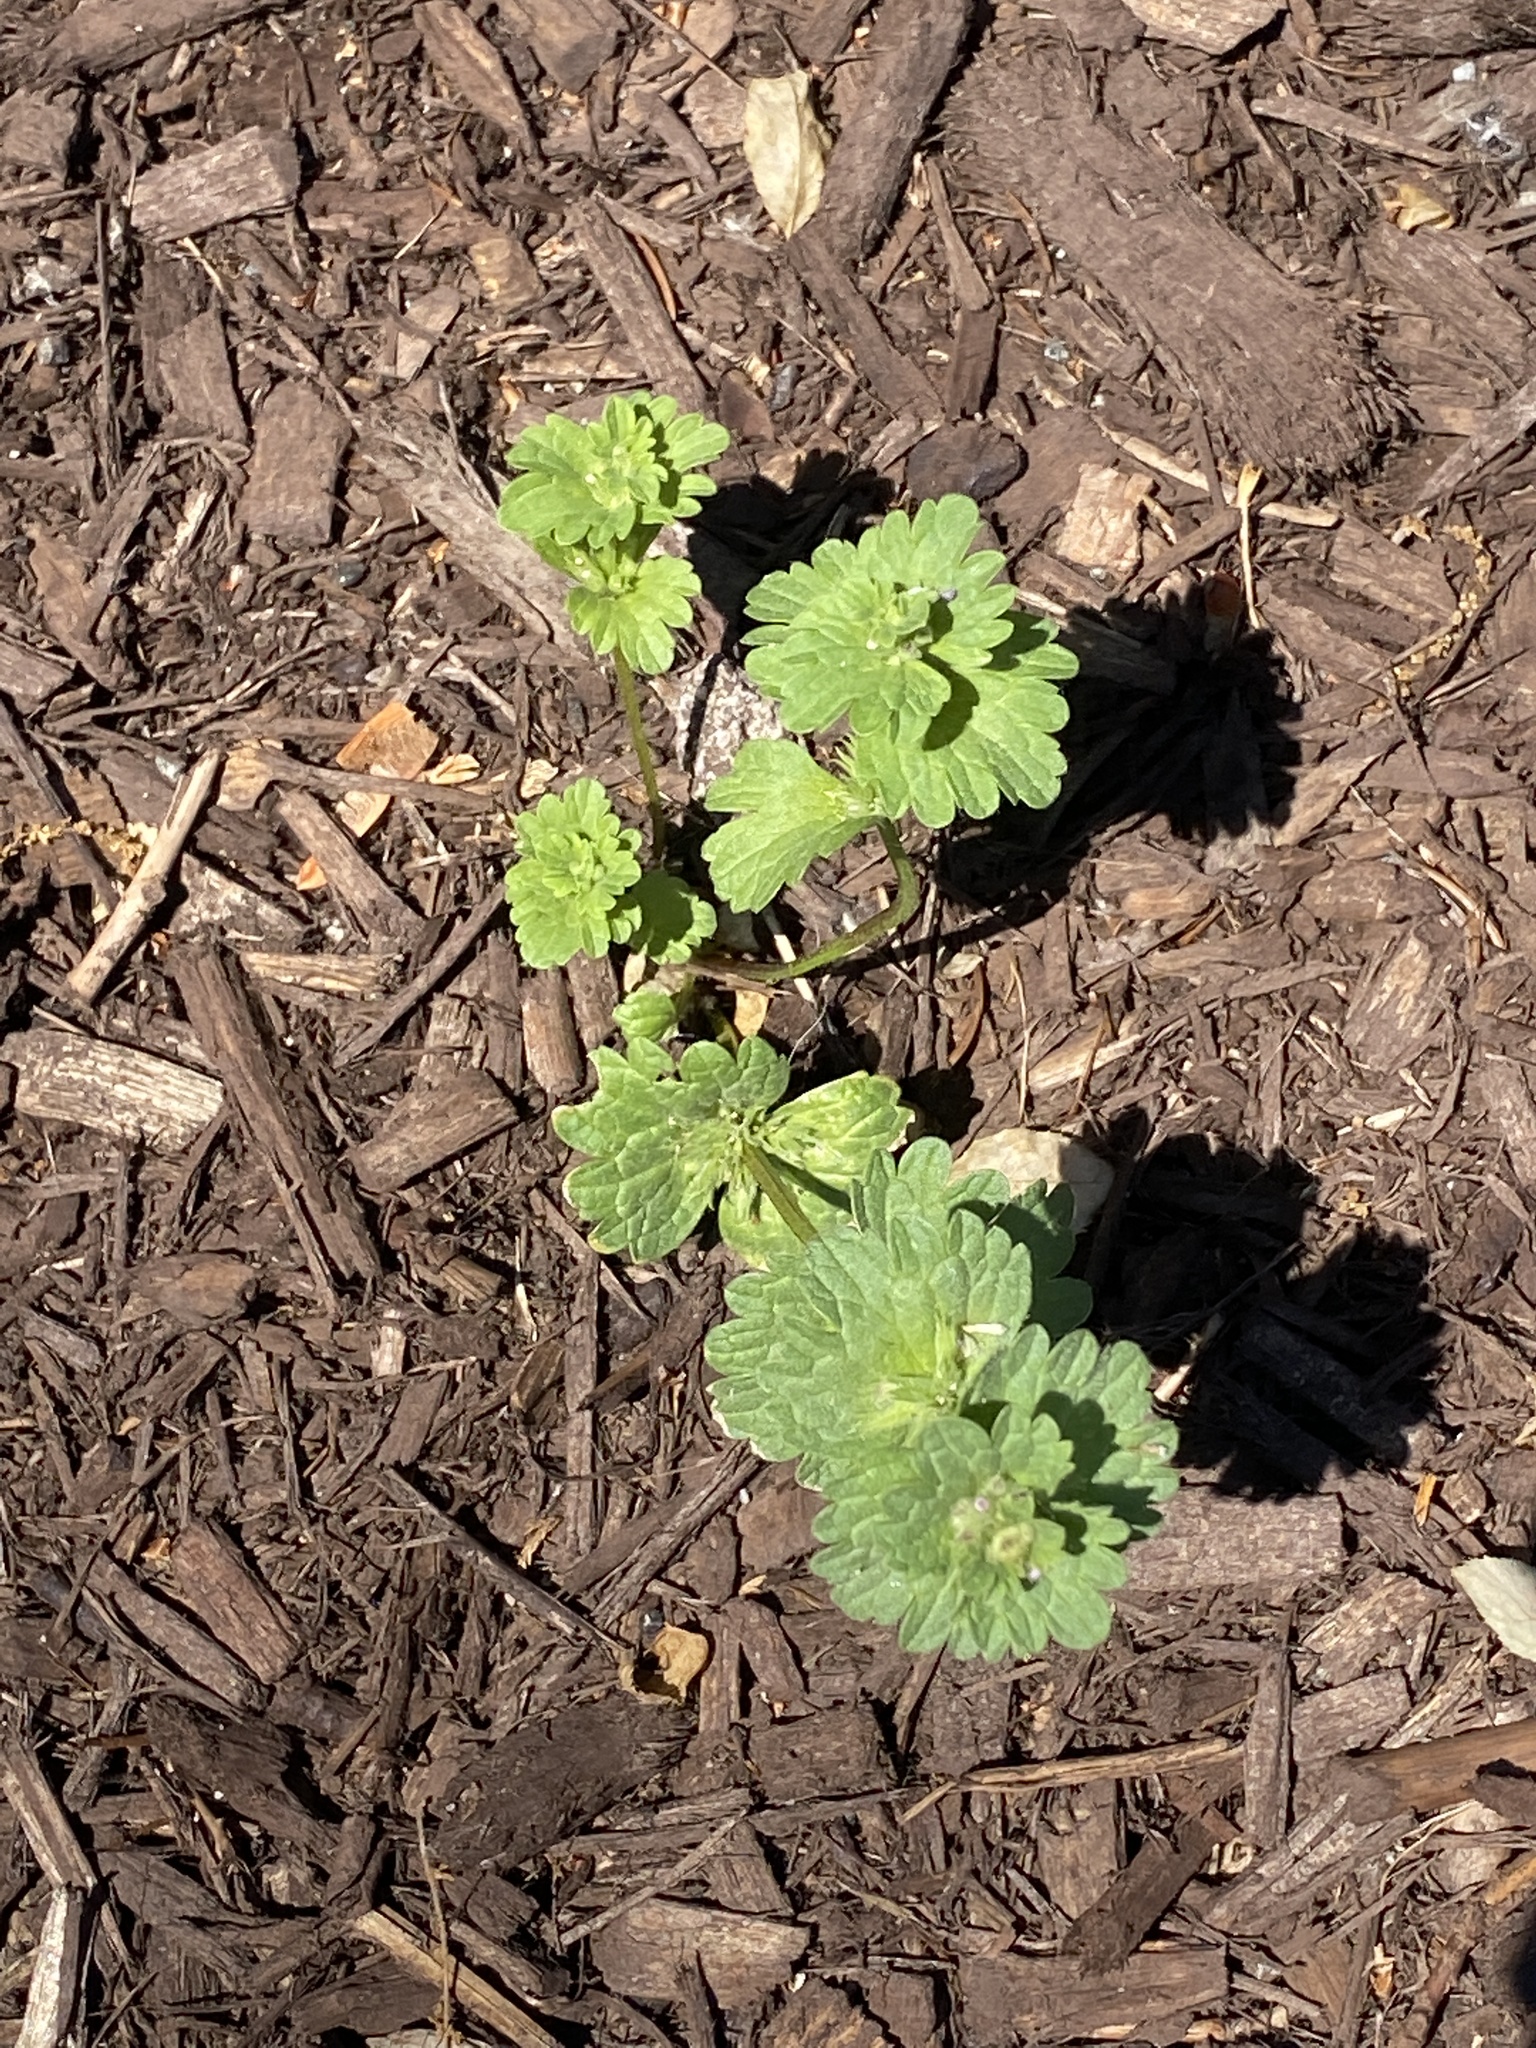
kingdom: Plantae
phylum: Tracheophyta
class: Magnoliopsida
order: Lamiales
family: Lamiaceae
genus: Lamium
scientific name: Lamium amplexicaule
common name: Henbit dead-nettle
